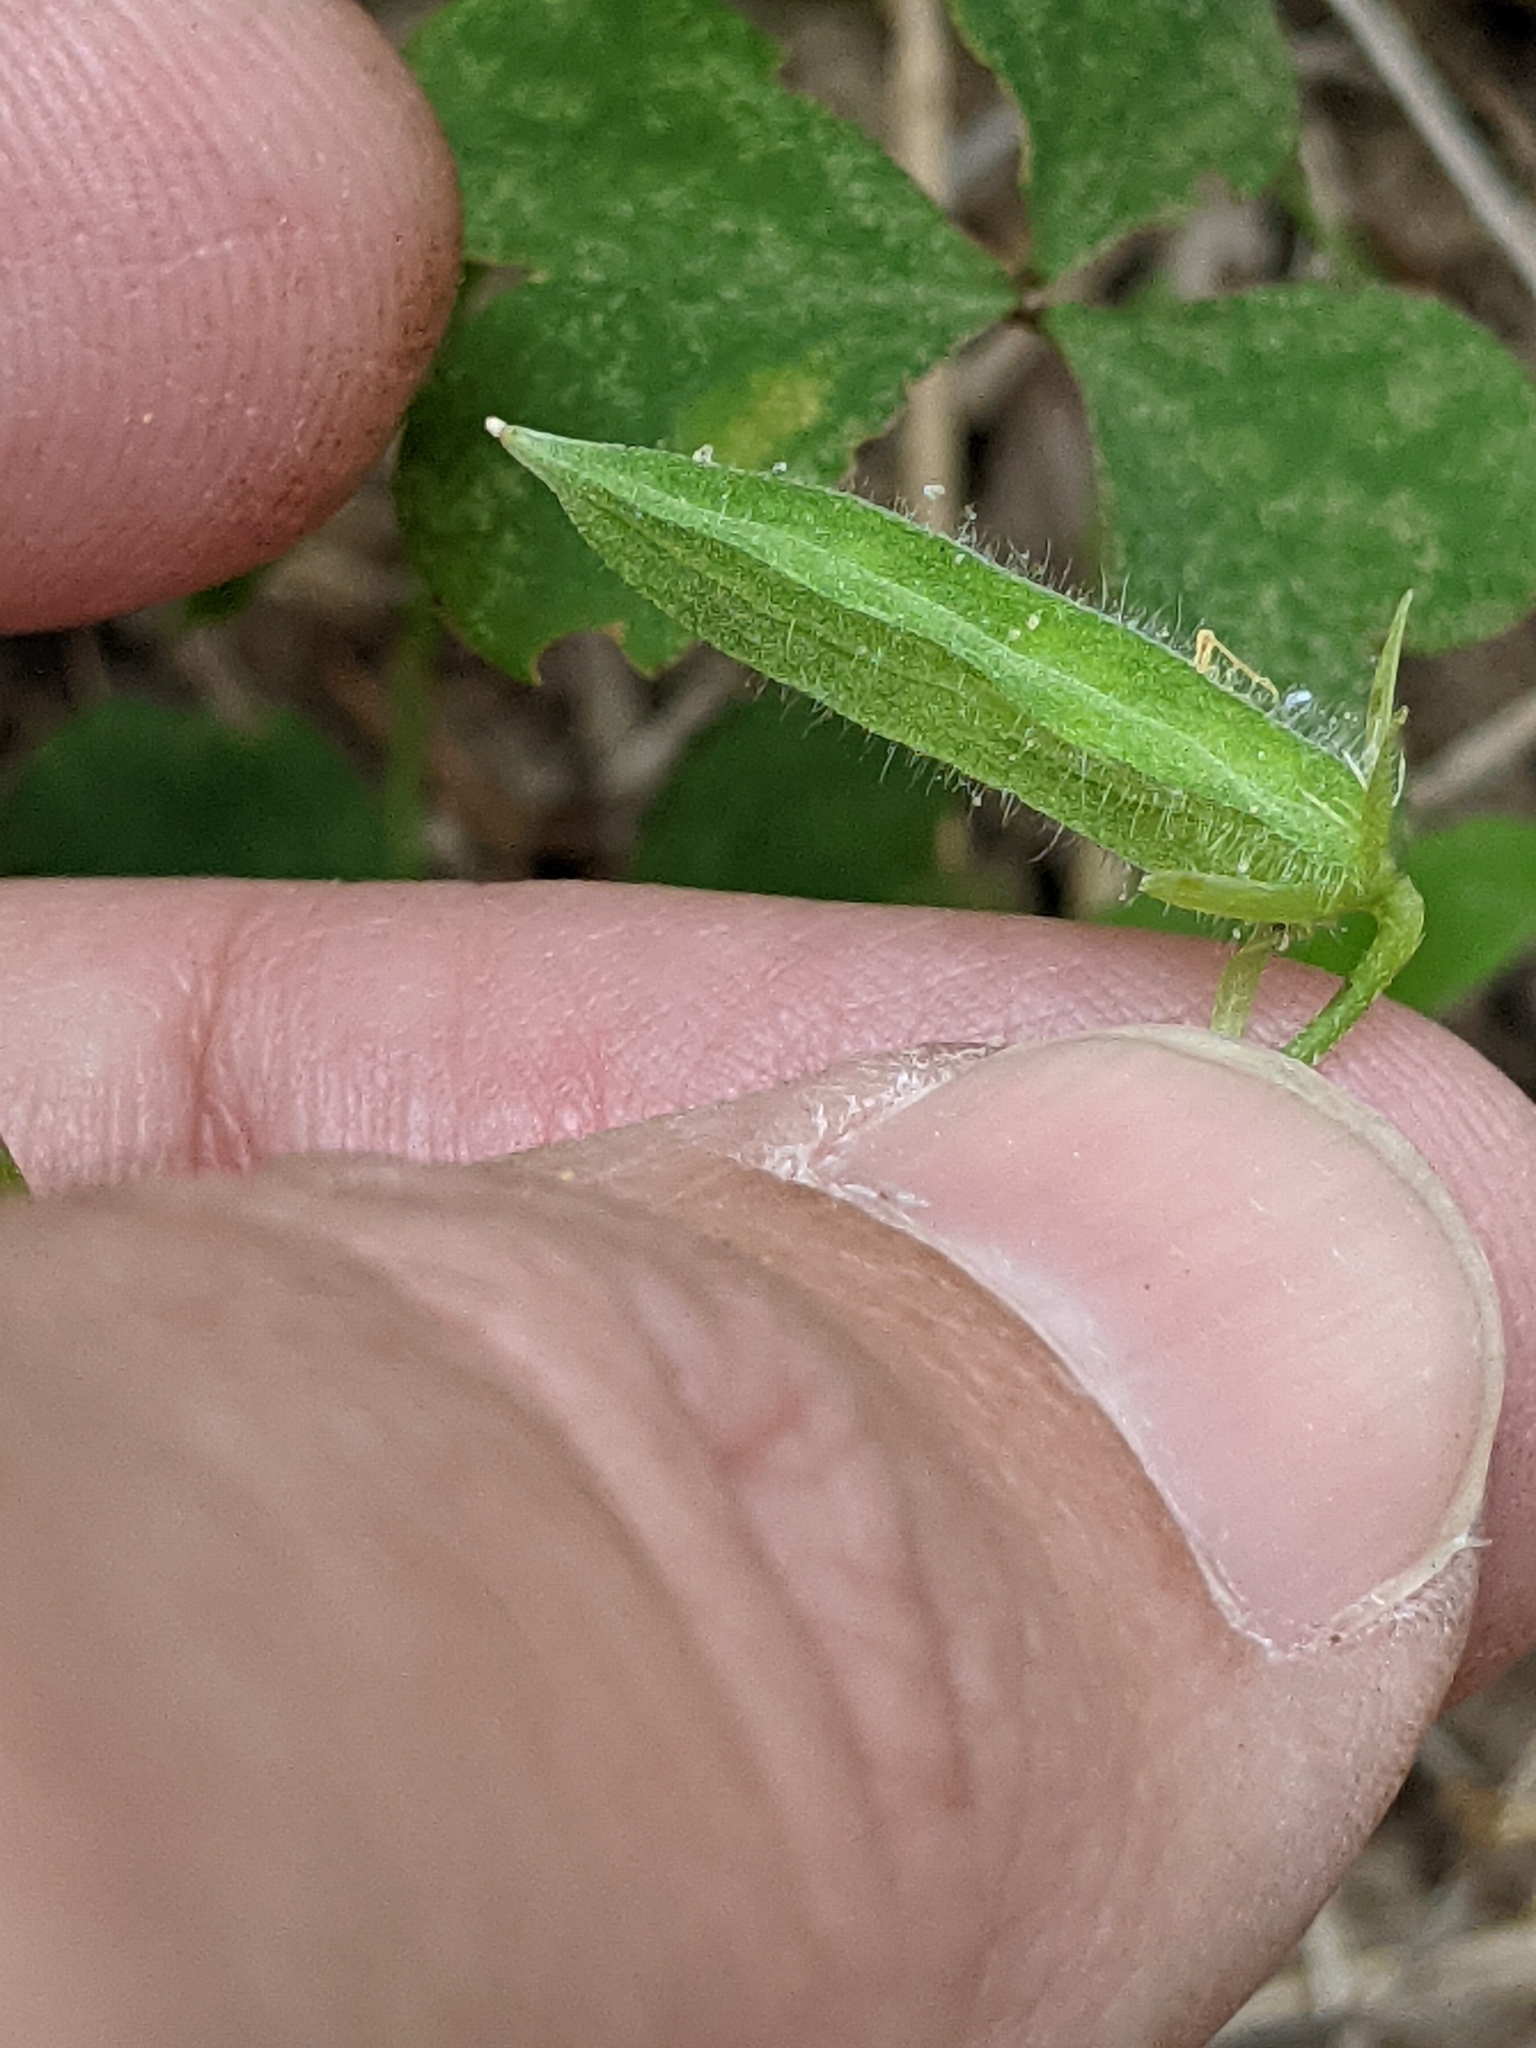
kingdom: Plantae
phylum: Tracheophyta
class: Magnoliopsida
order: Oxalidales
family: Oxalidaceae
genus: Oxalis
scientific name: Oxalis dillenii
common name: Sussex yellow-sorrel
